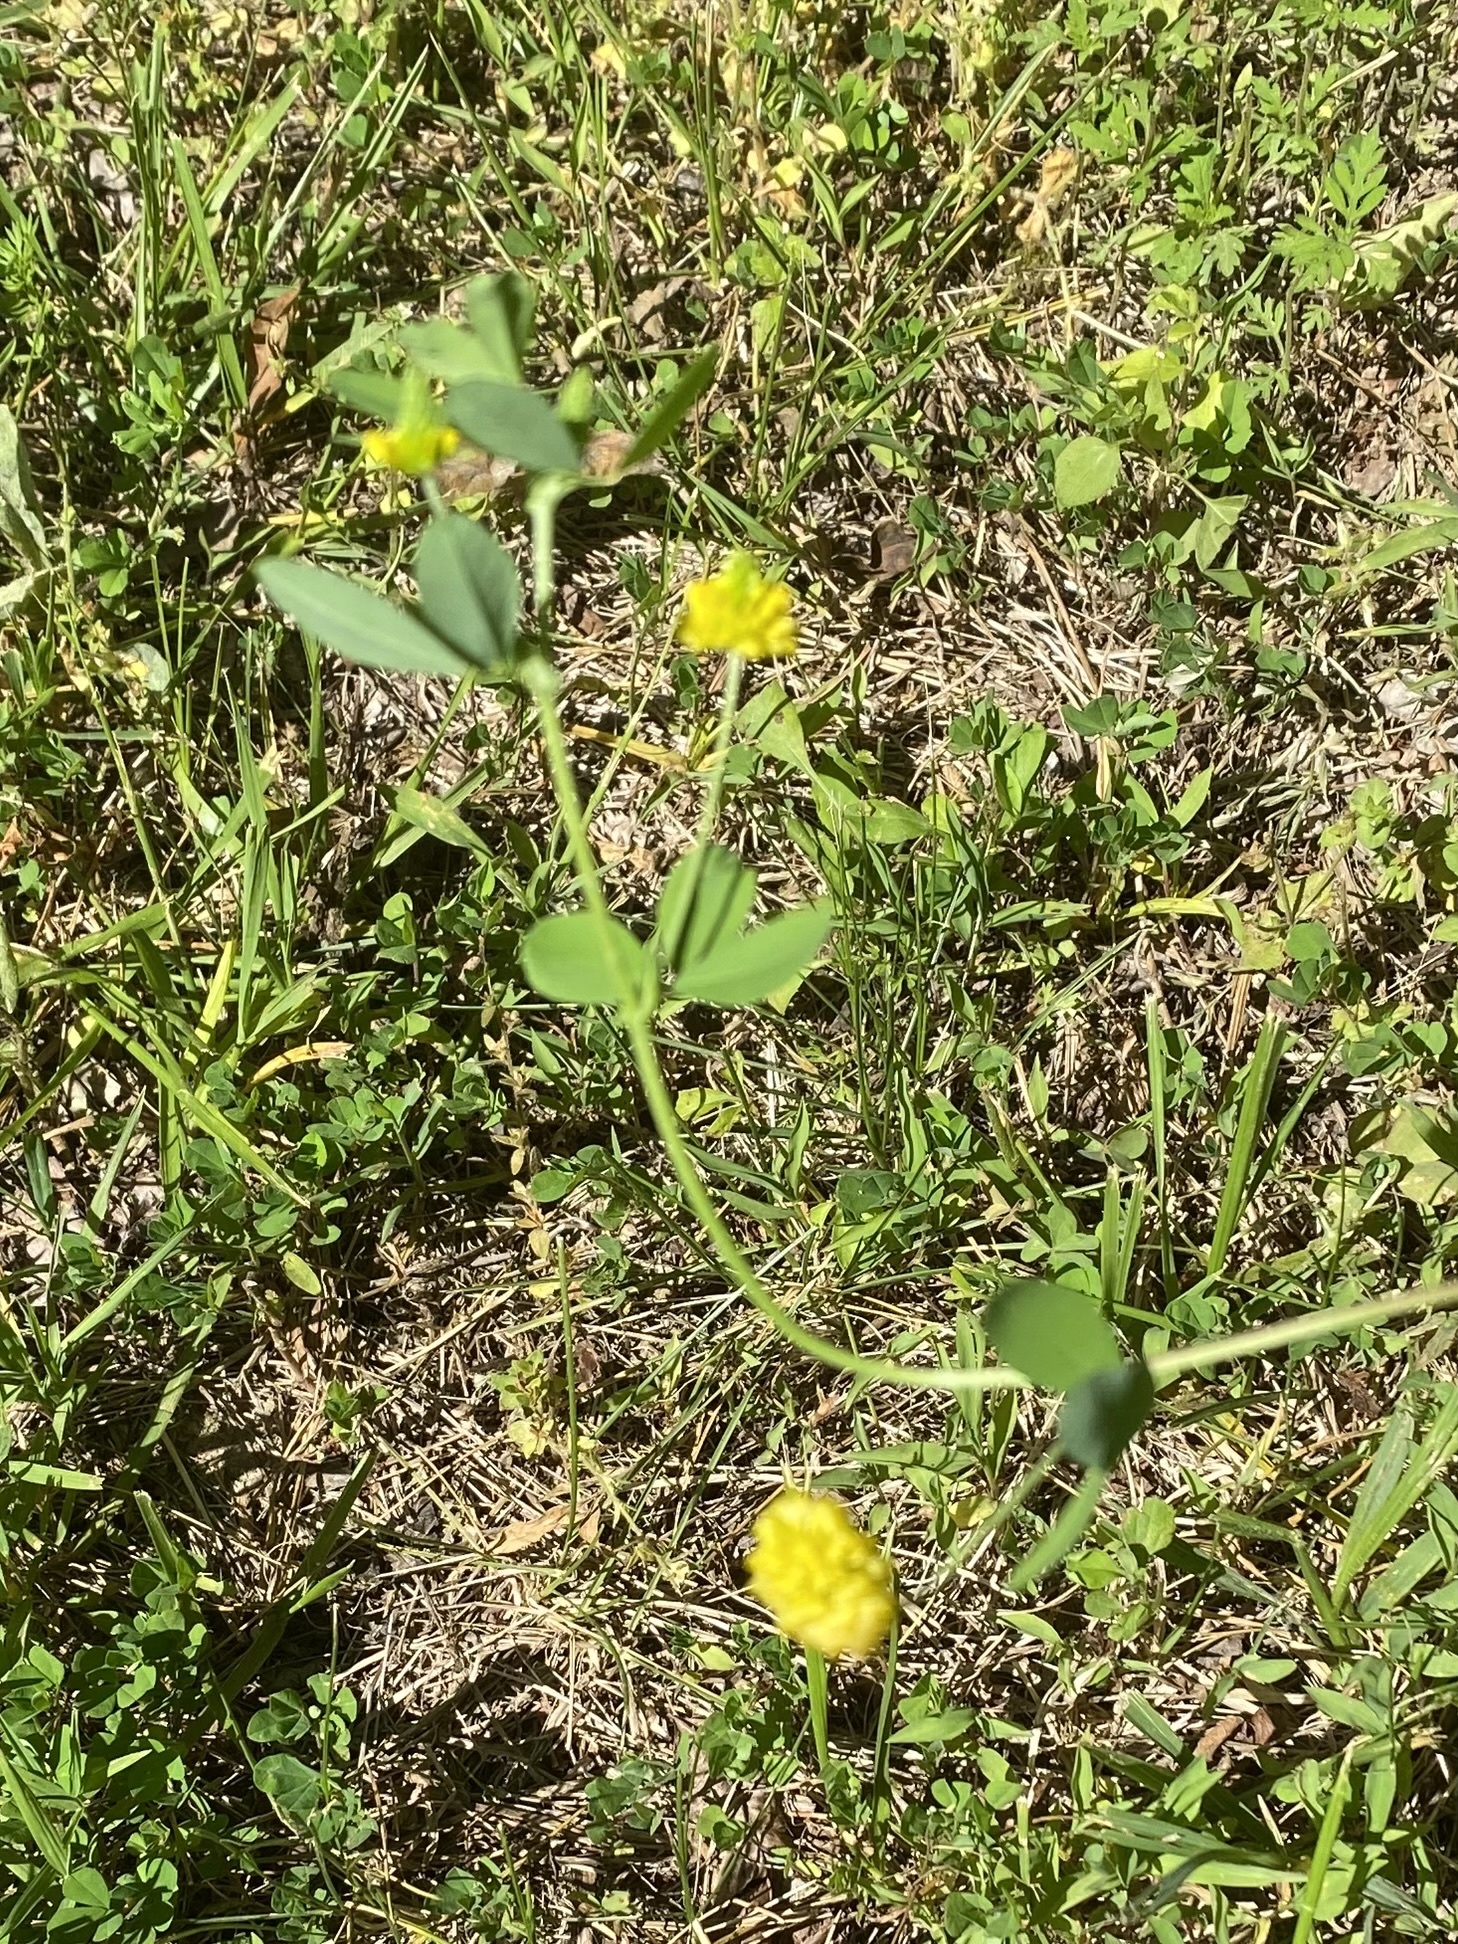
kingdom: Plantae
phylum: Tracheophyta
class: Magnoliopsida
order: Fabales
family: Fabaceae
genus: Trifolium
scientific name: Trifolium campestre
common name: Field clover
